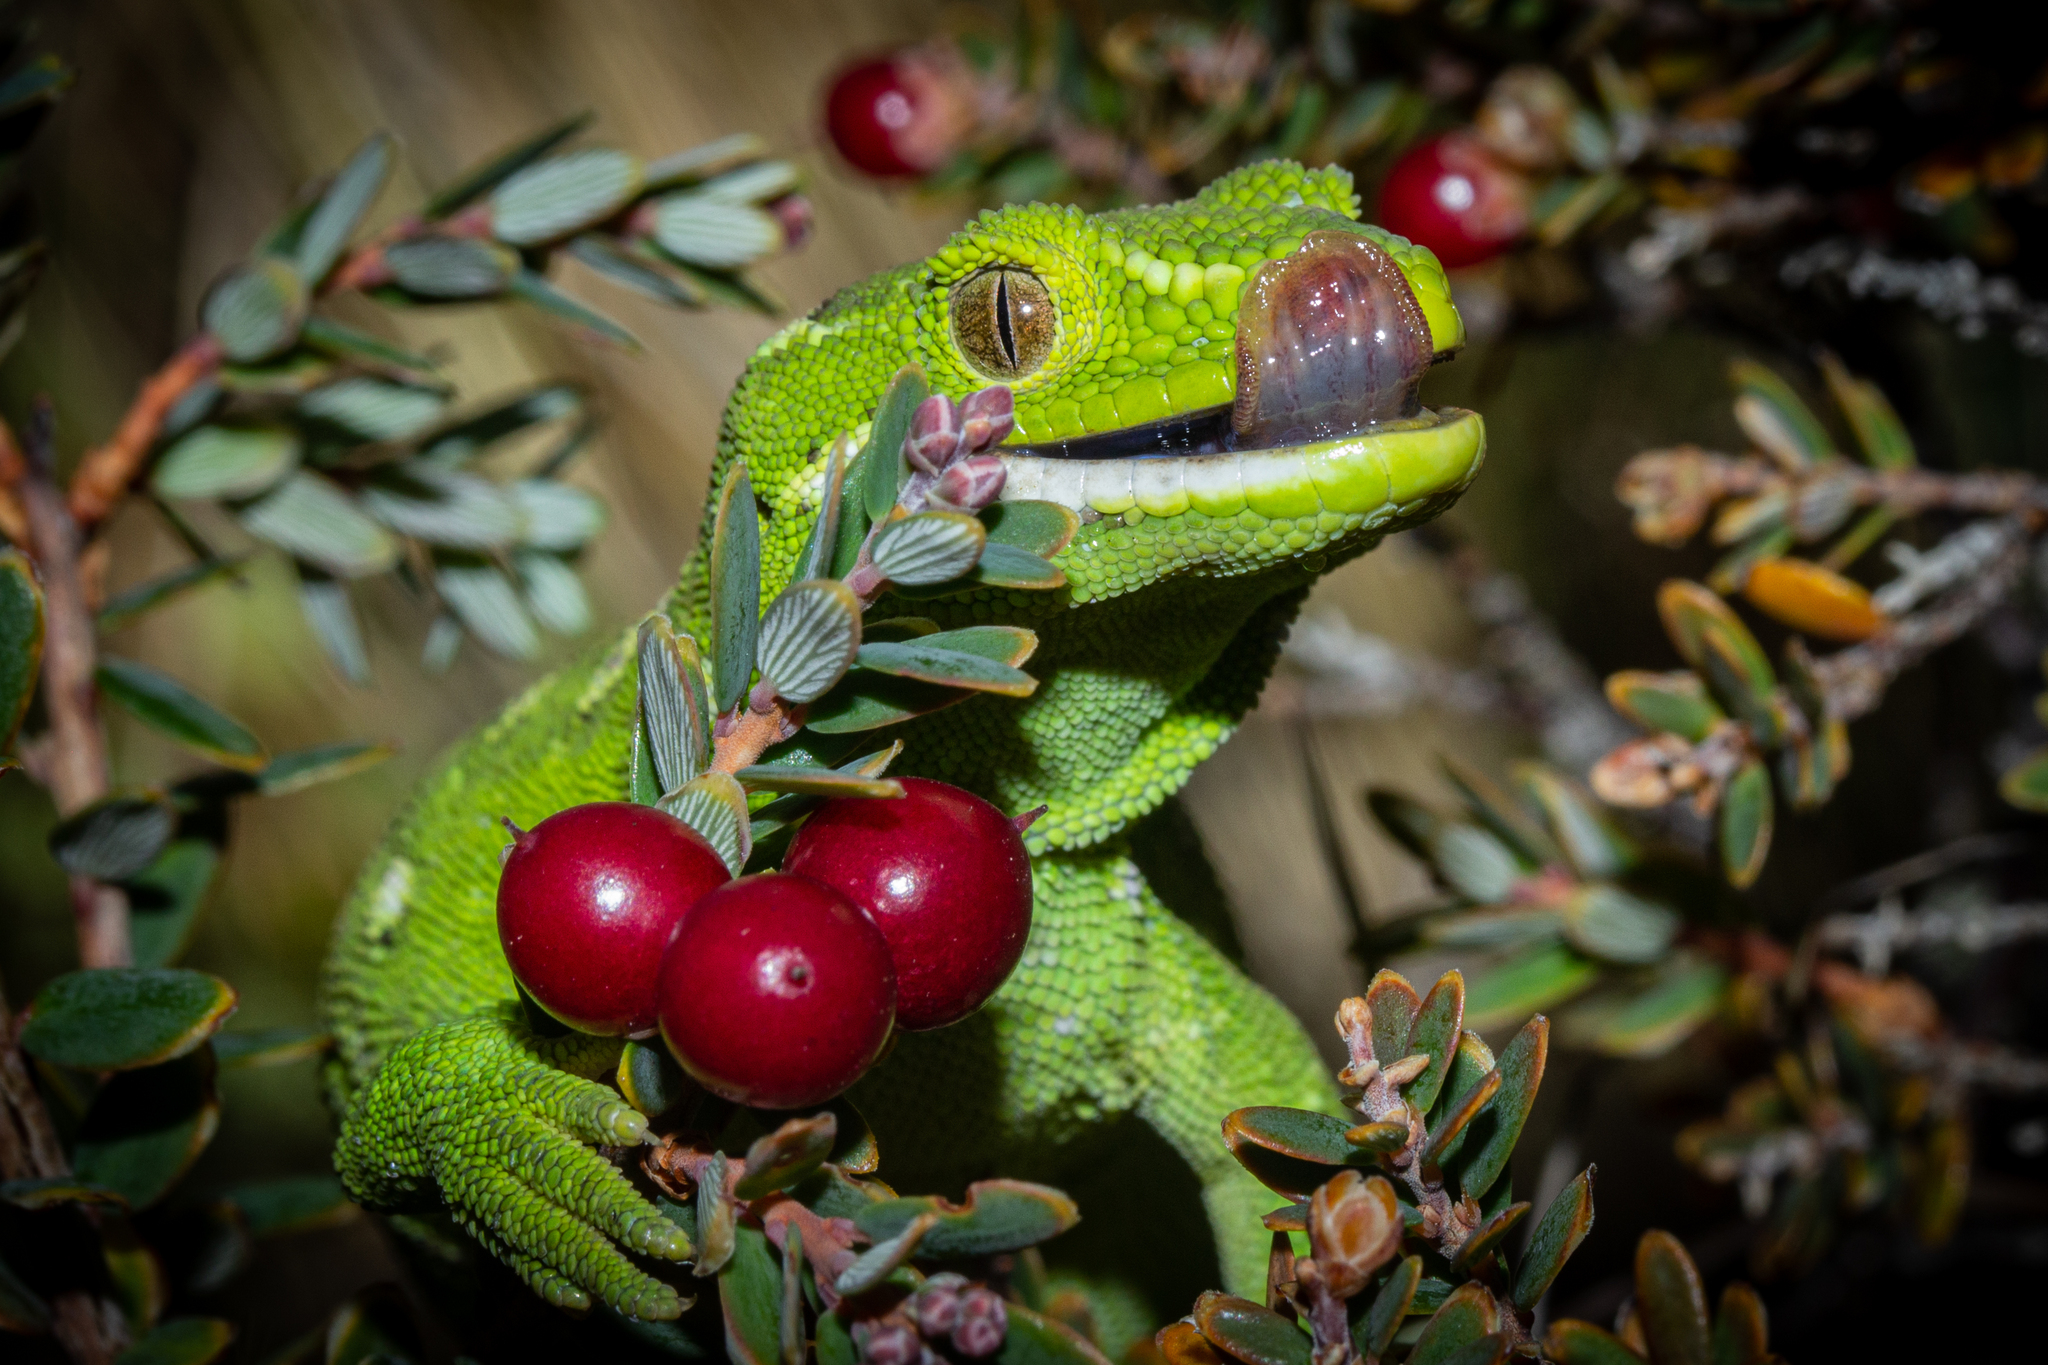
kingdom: Animalia
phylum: Chordata
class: Squamata
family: Diplodactylidae
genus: Naultinus
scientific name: Naultinus gemmeus
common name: Jewelled gecko
